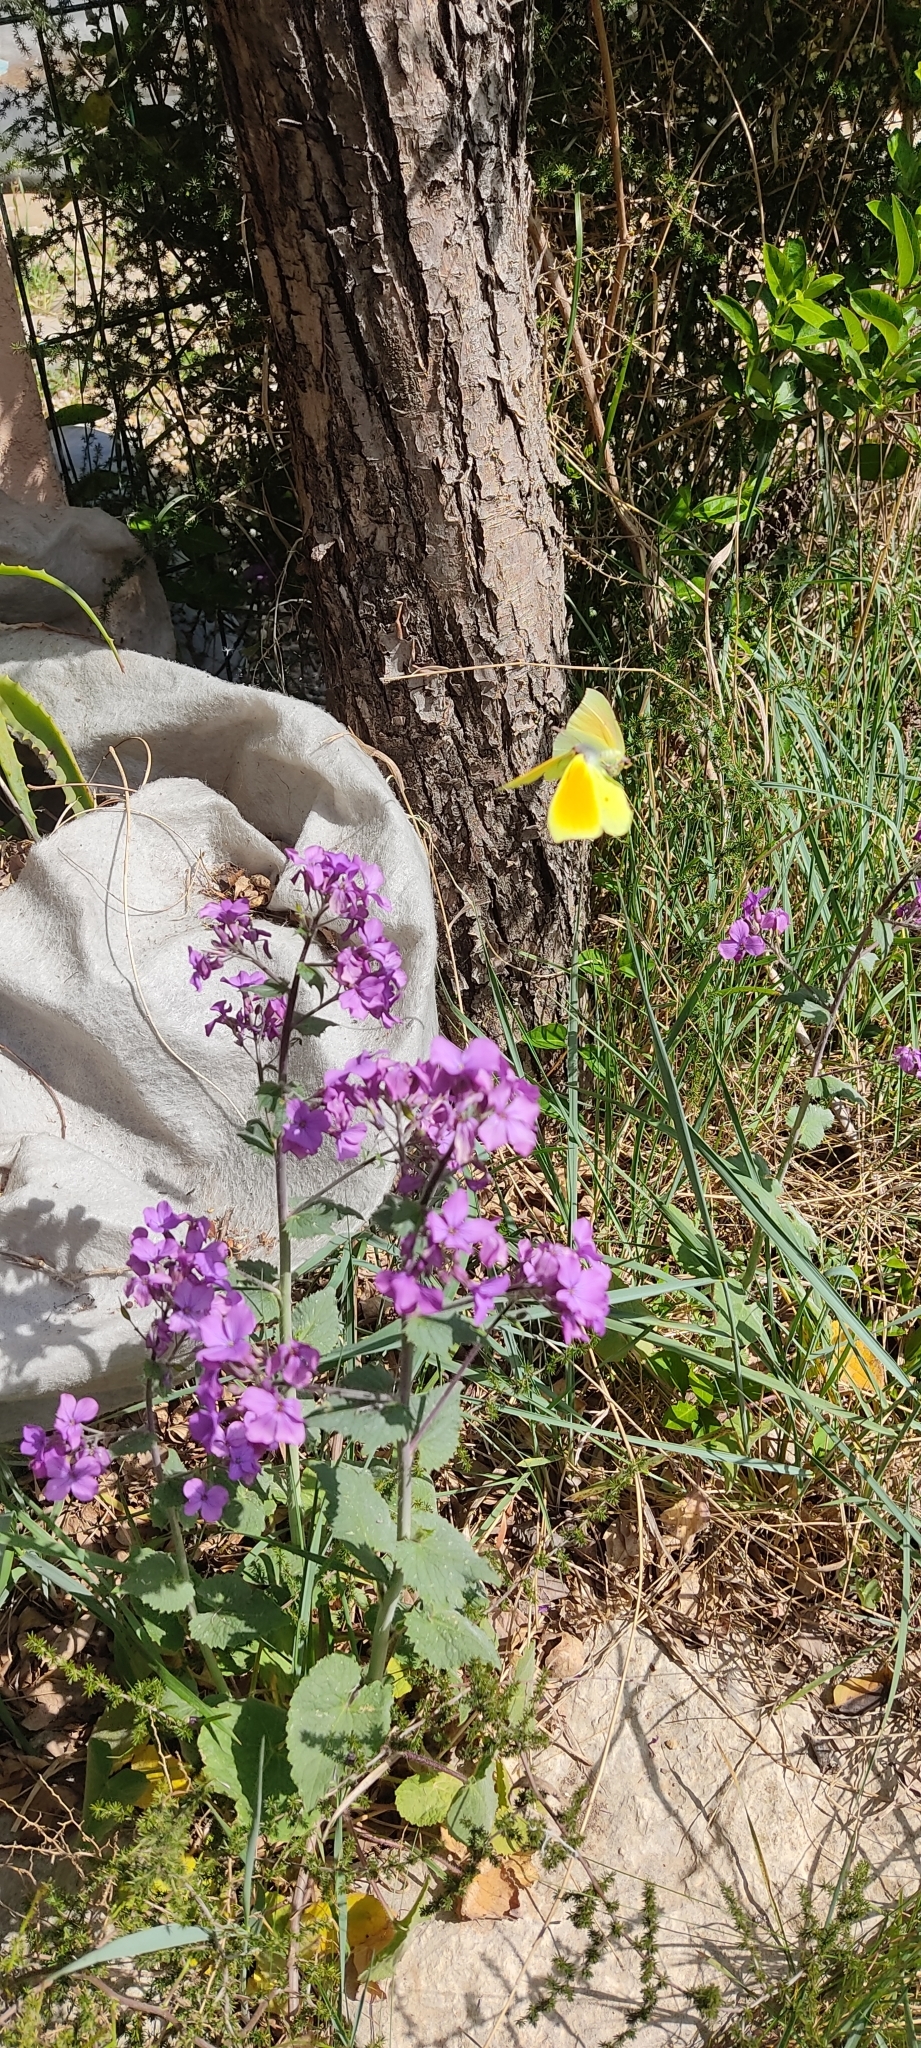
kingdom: Animalia
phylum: Arthropoda
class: Insecta
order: Lepidoptera
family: Pieridae
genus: Gonepteryx
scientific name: Gonepteryx cleopatra
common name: Cleopatra
